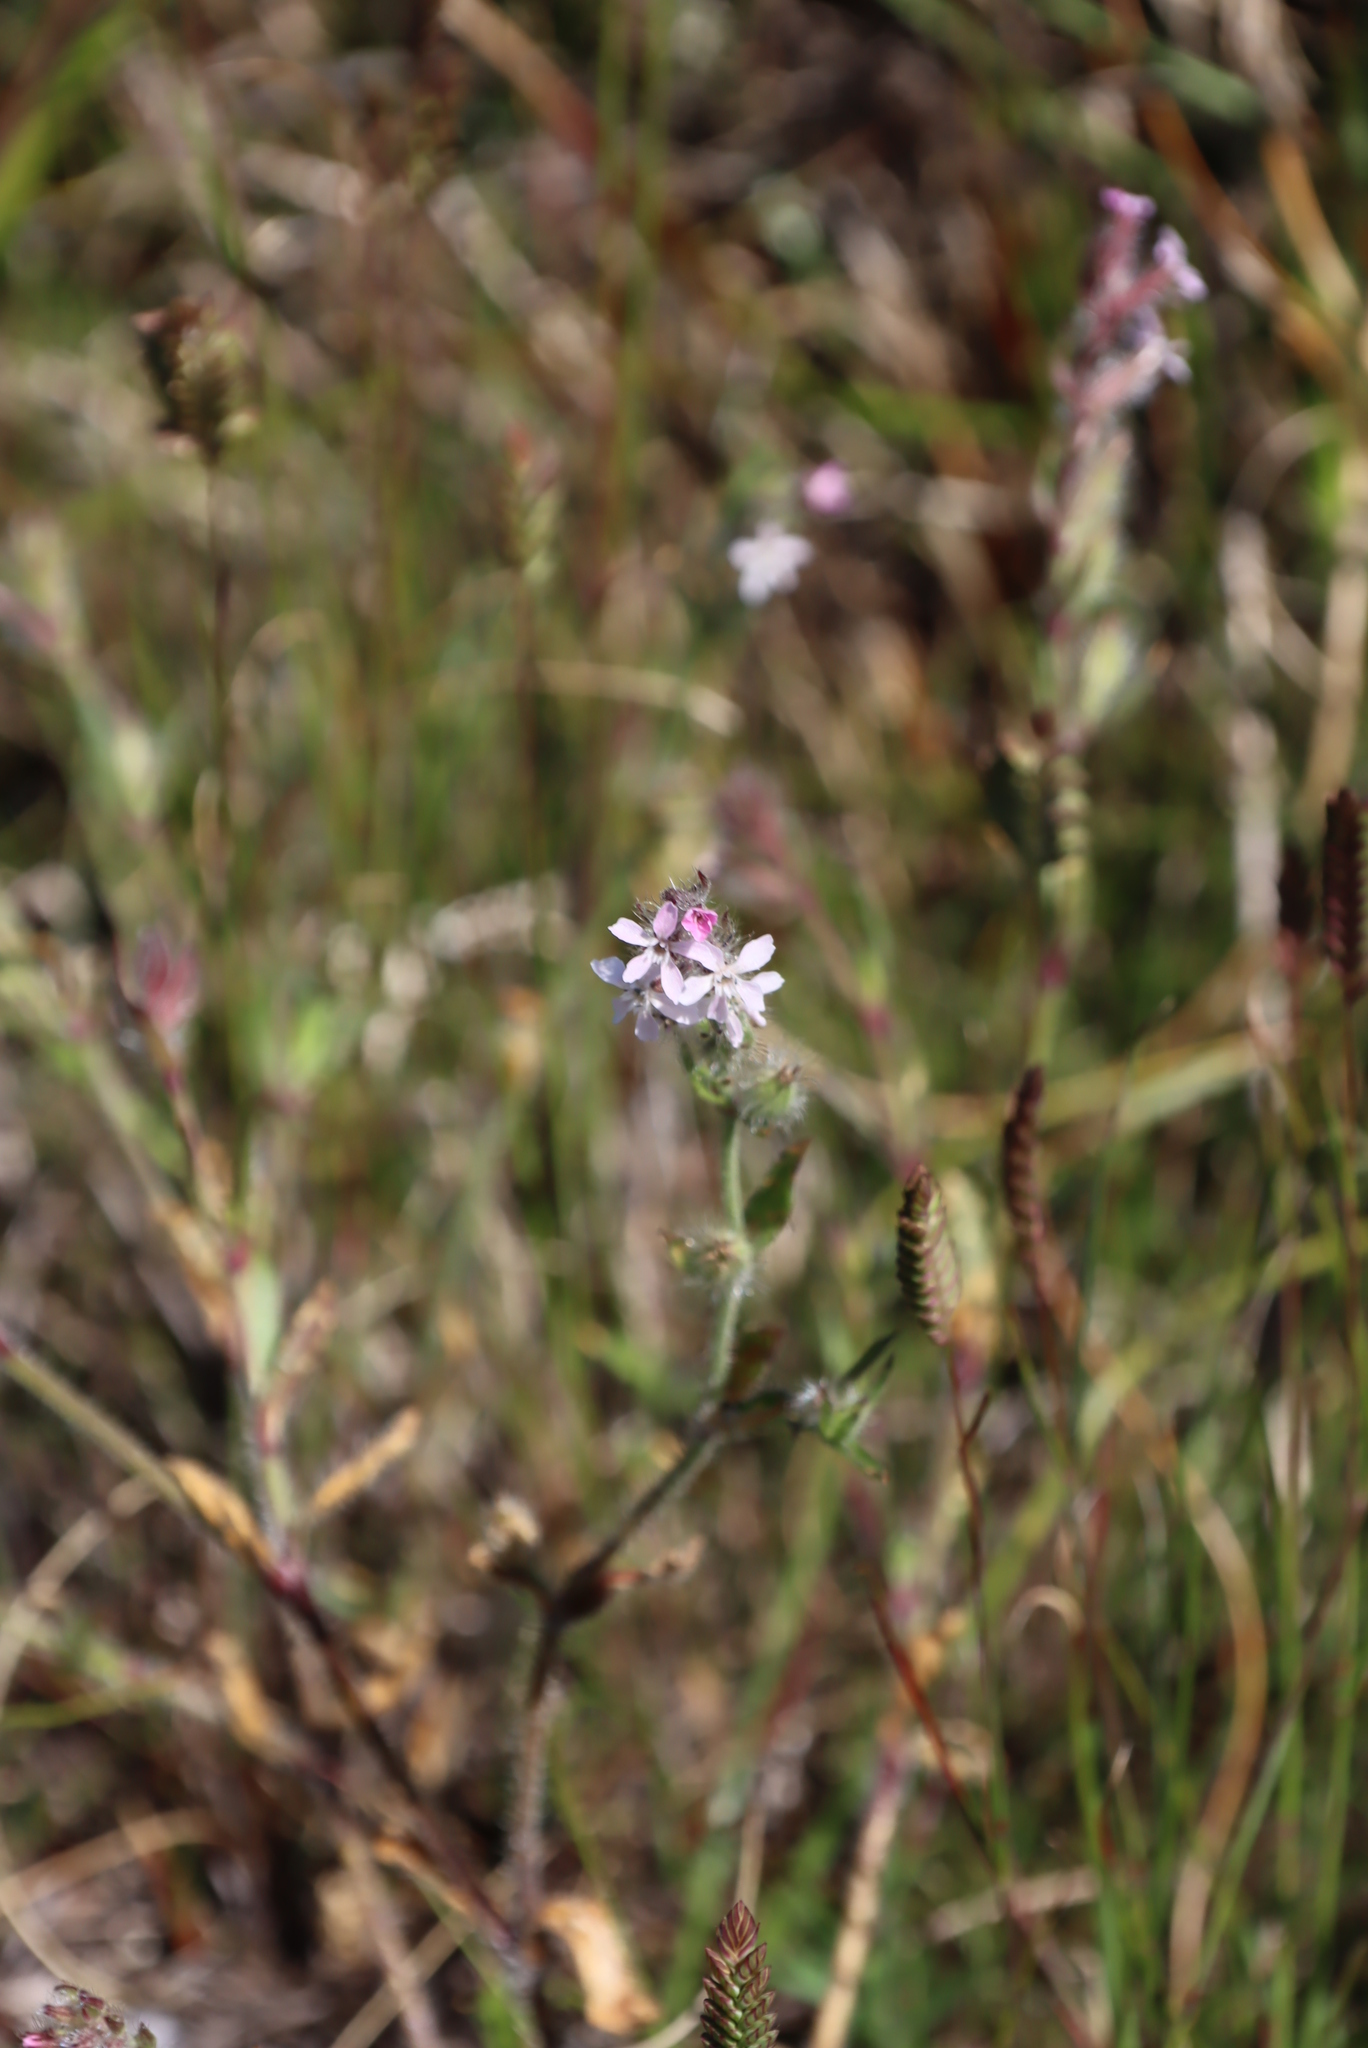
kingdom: Plantae
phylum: Tracheophyta
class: Magnoliopsida
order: Caryophyllales
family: Caryophyllaceae
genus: Silene
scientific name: Silene gallica
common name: Small-flowered catchfly
